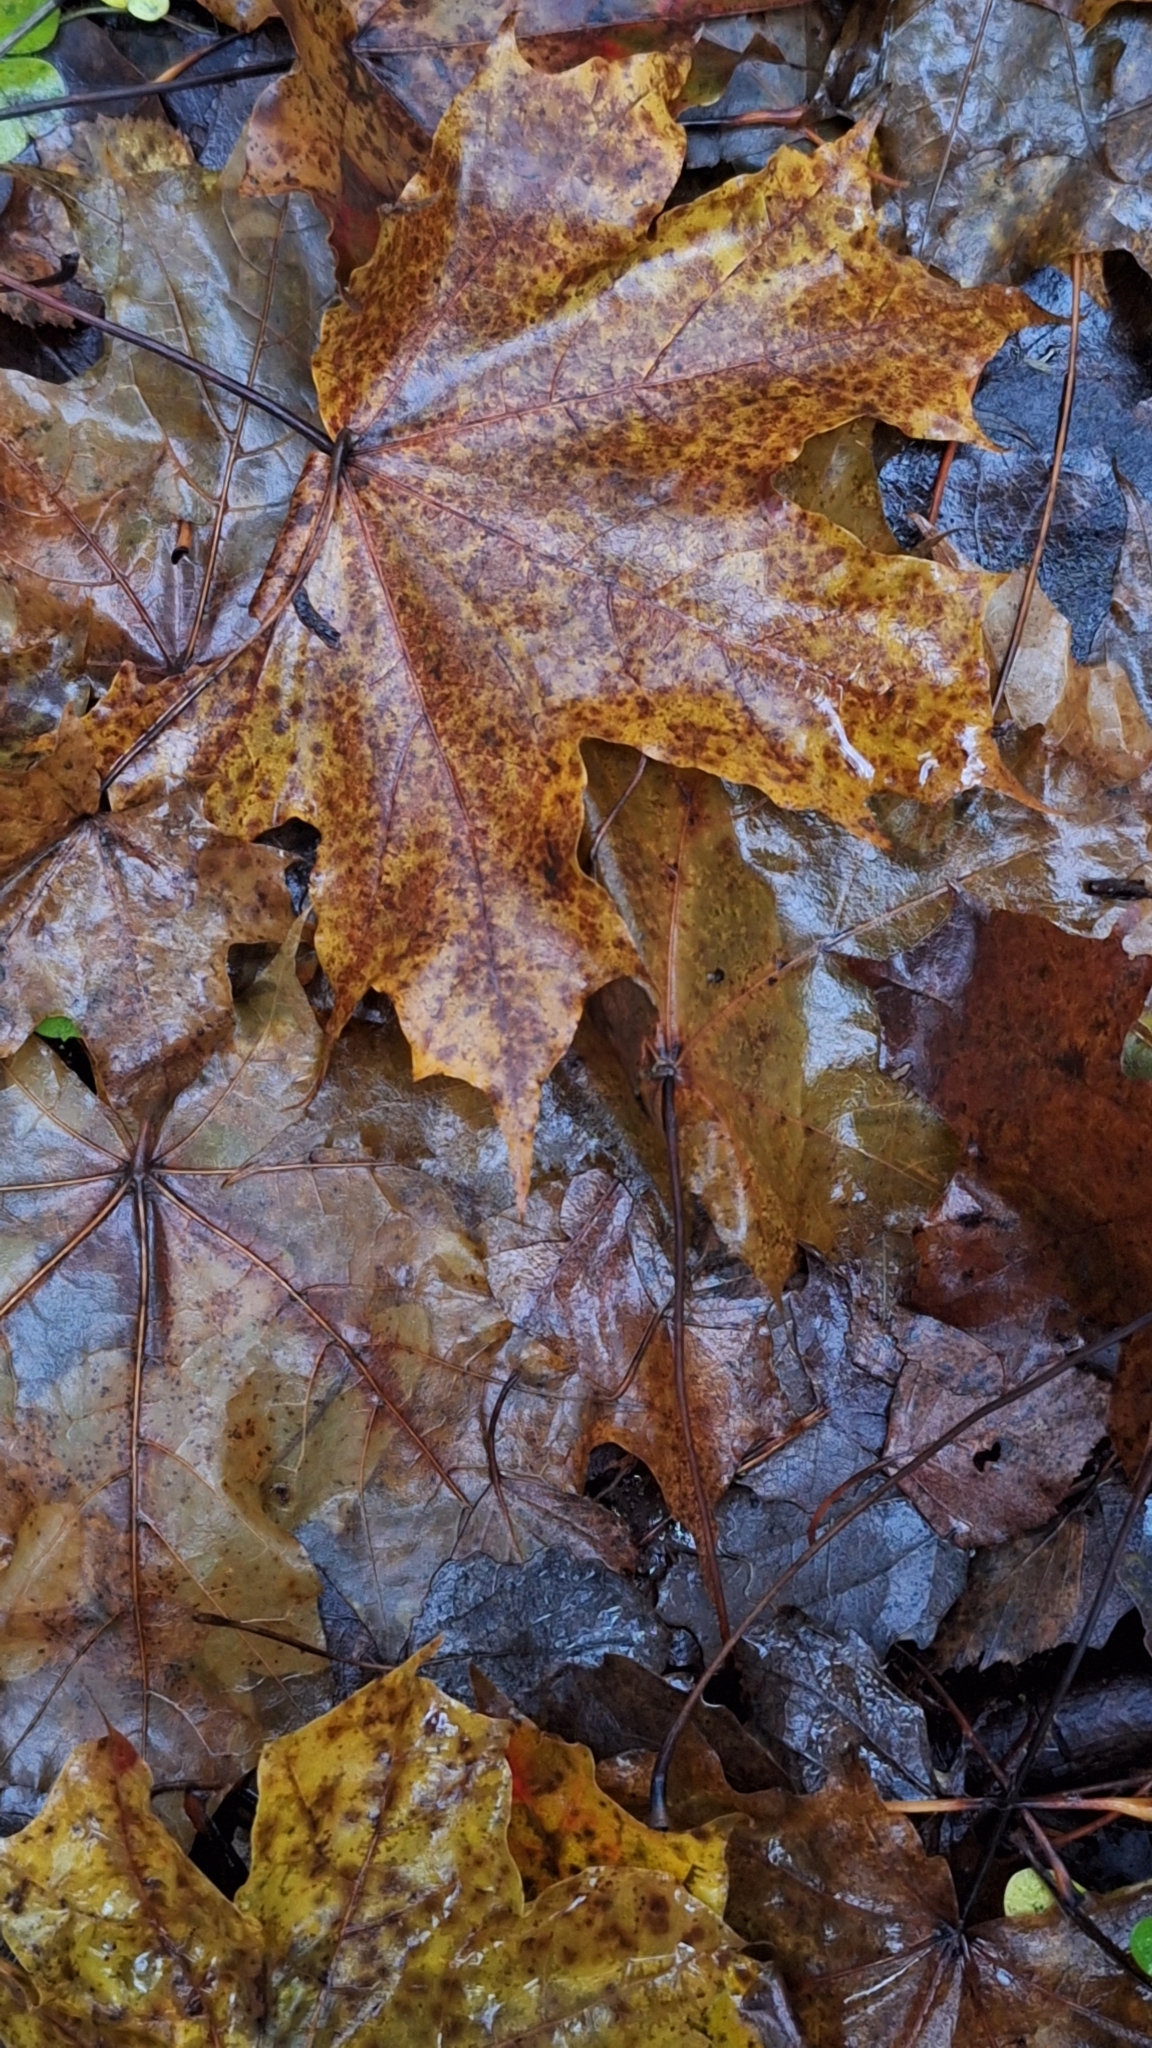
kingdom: Plantae
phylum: Tracheophyta
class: Magnoliopsida
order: Sapindales
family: Sapindaceae
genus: Acer
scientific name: Acer platanoides
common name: Norway maple
